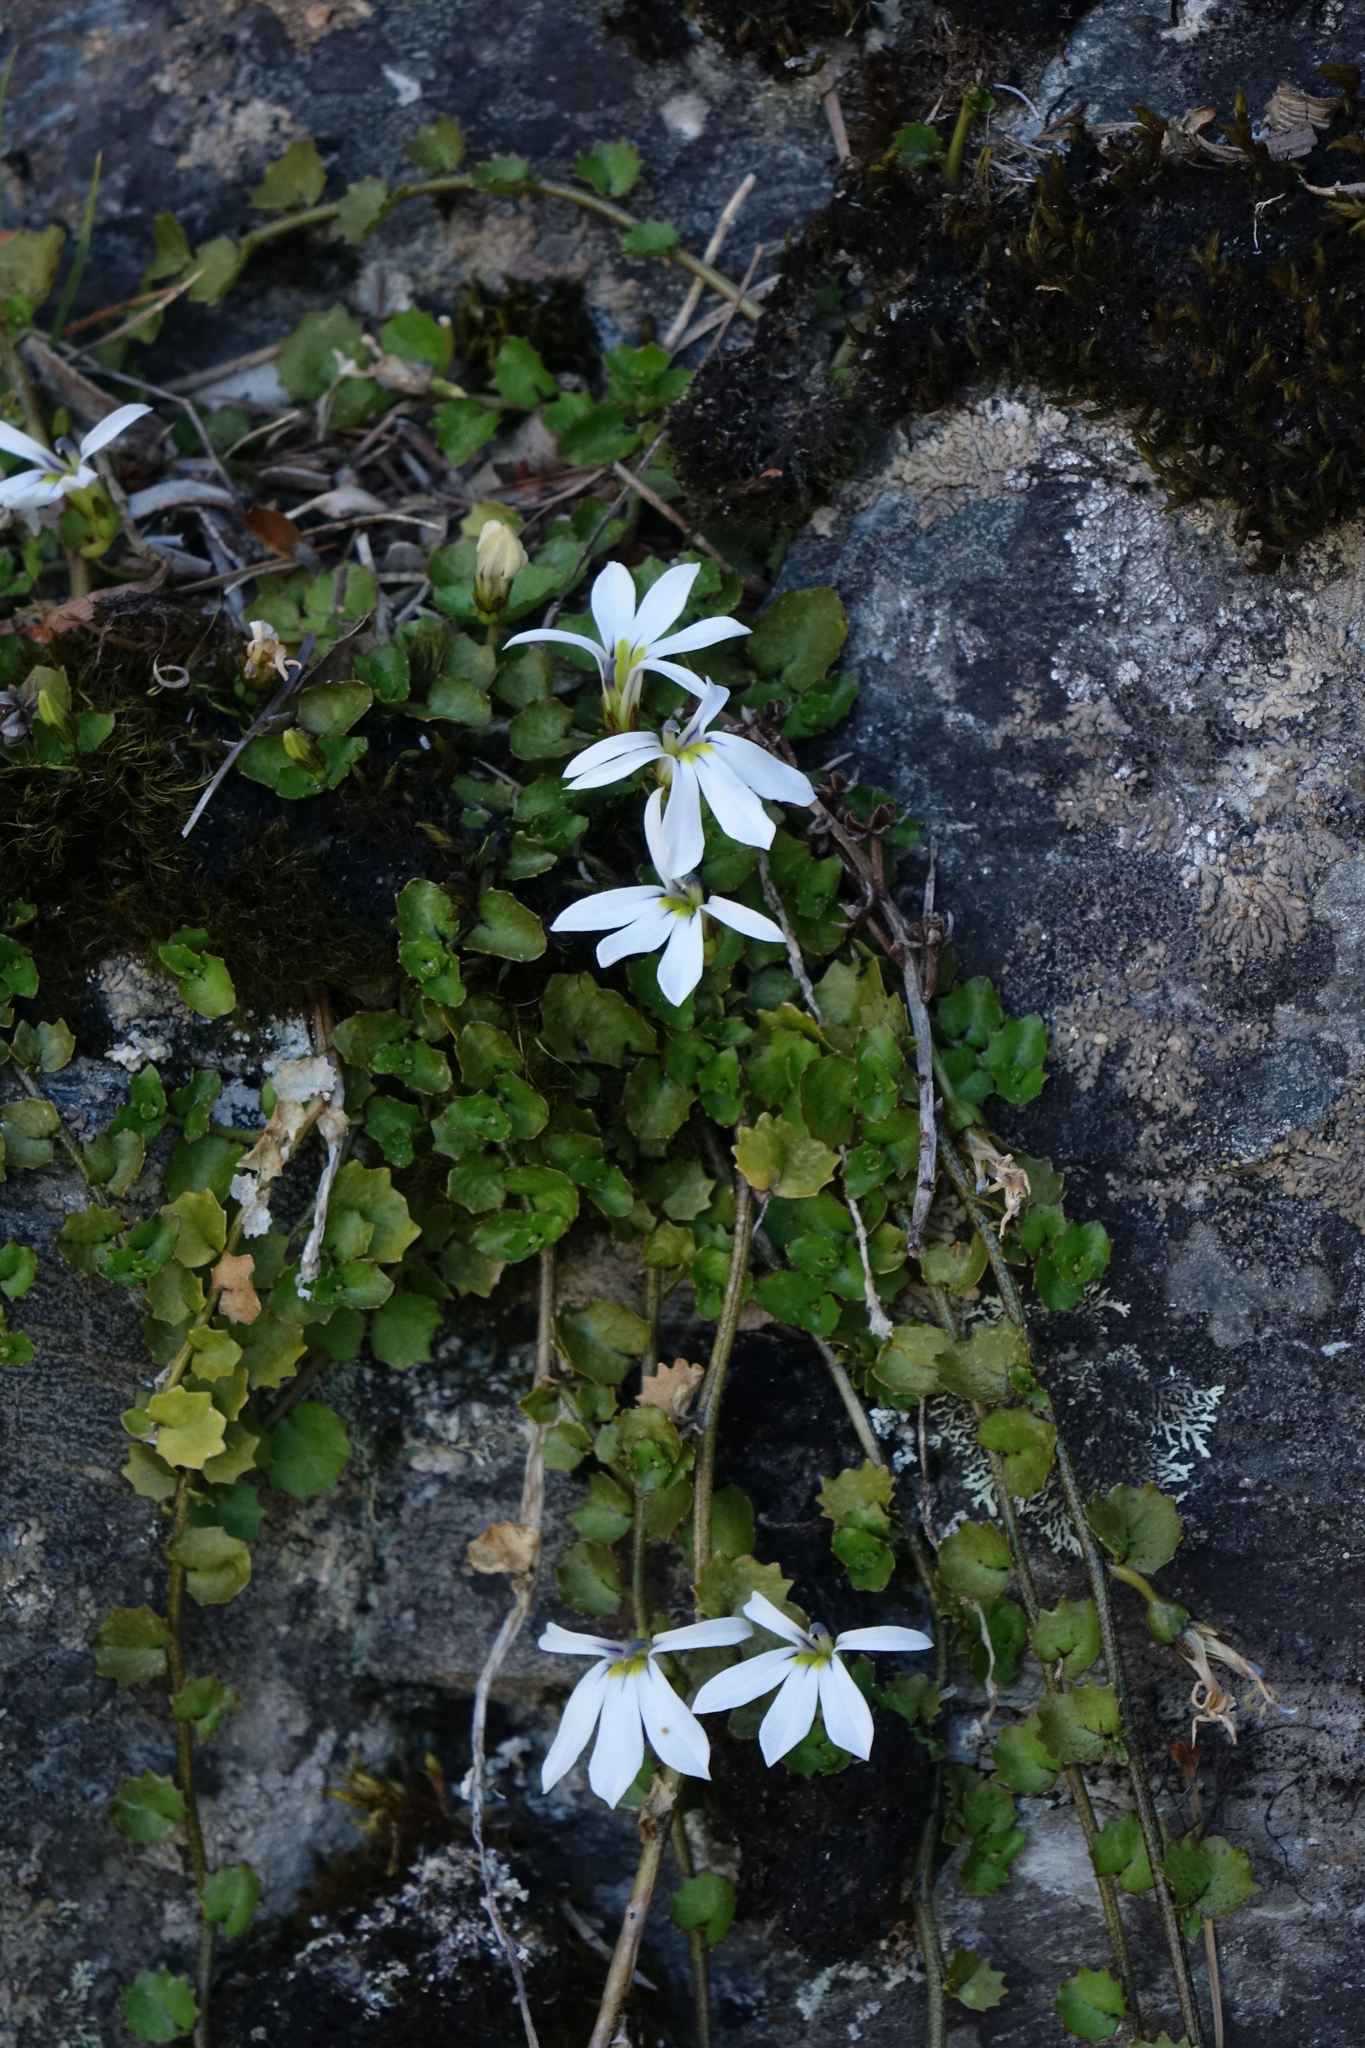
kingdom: Plantae
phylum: Tracheophyta
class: Magnoliopsida
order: Asterales
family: Campanulaceae
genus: Lobelia
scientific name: Lobelia angulata
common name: Lawn lobelia
